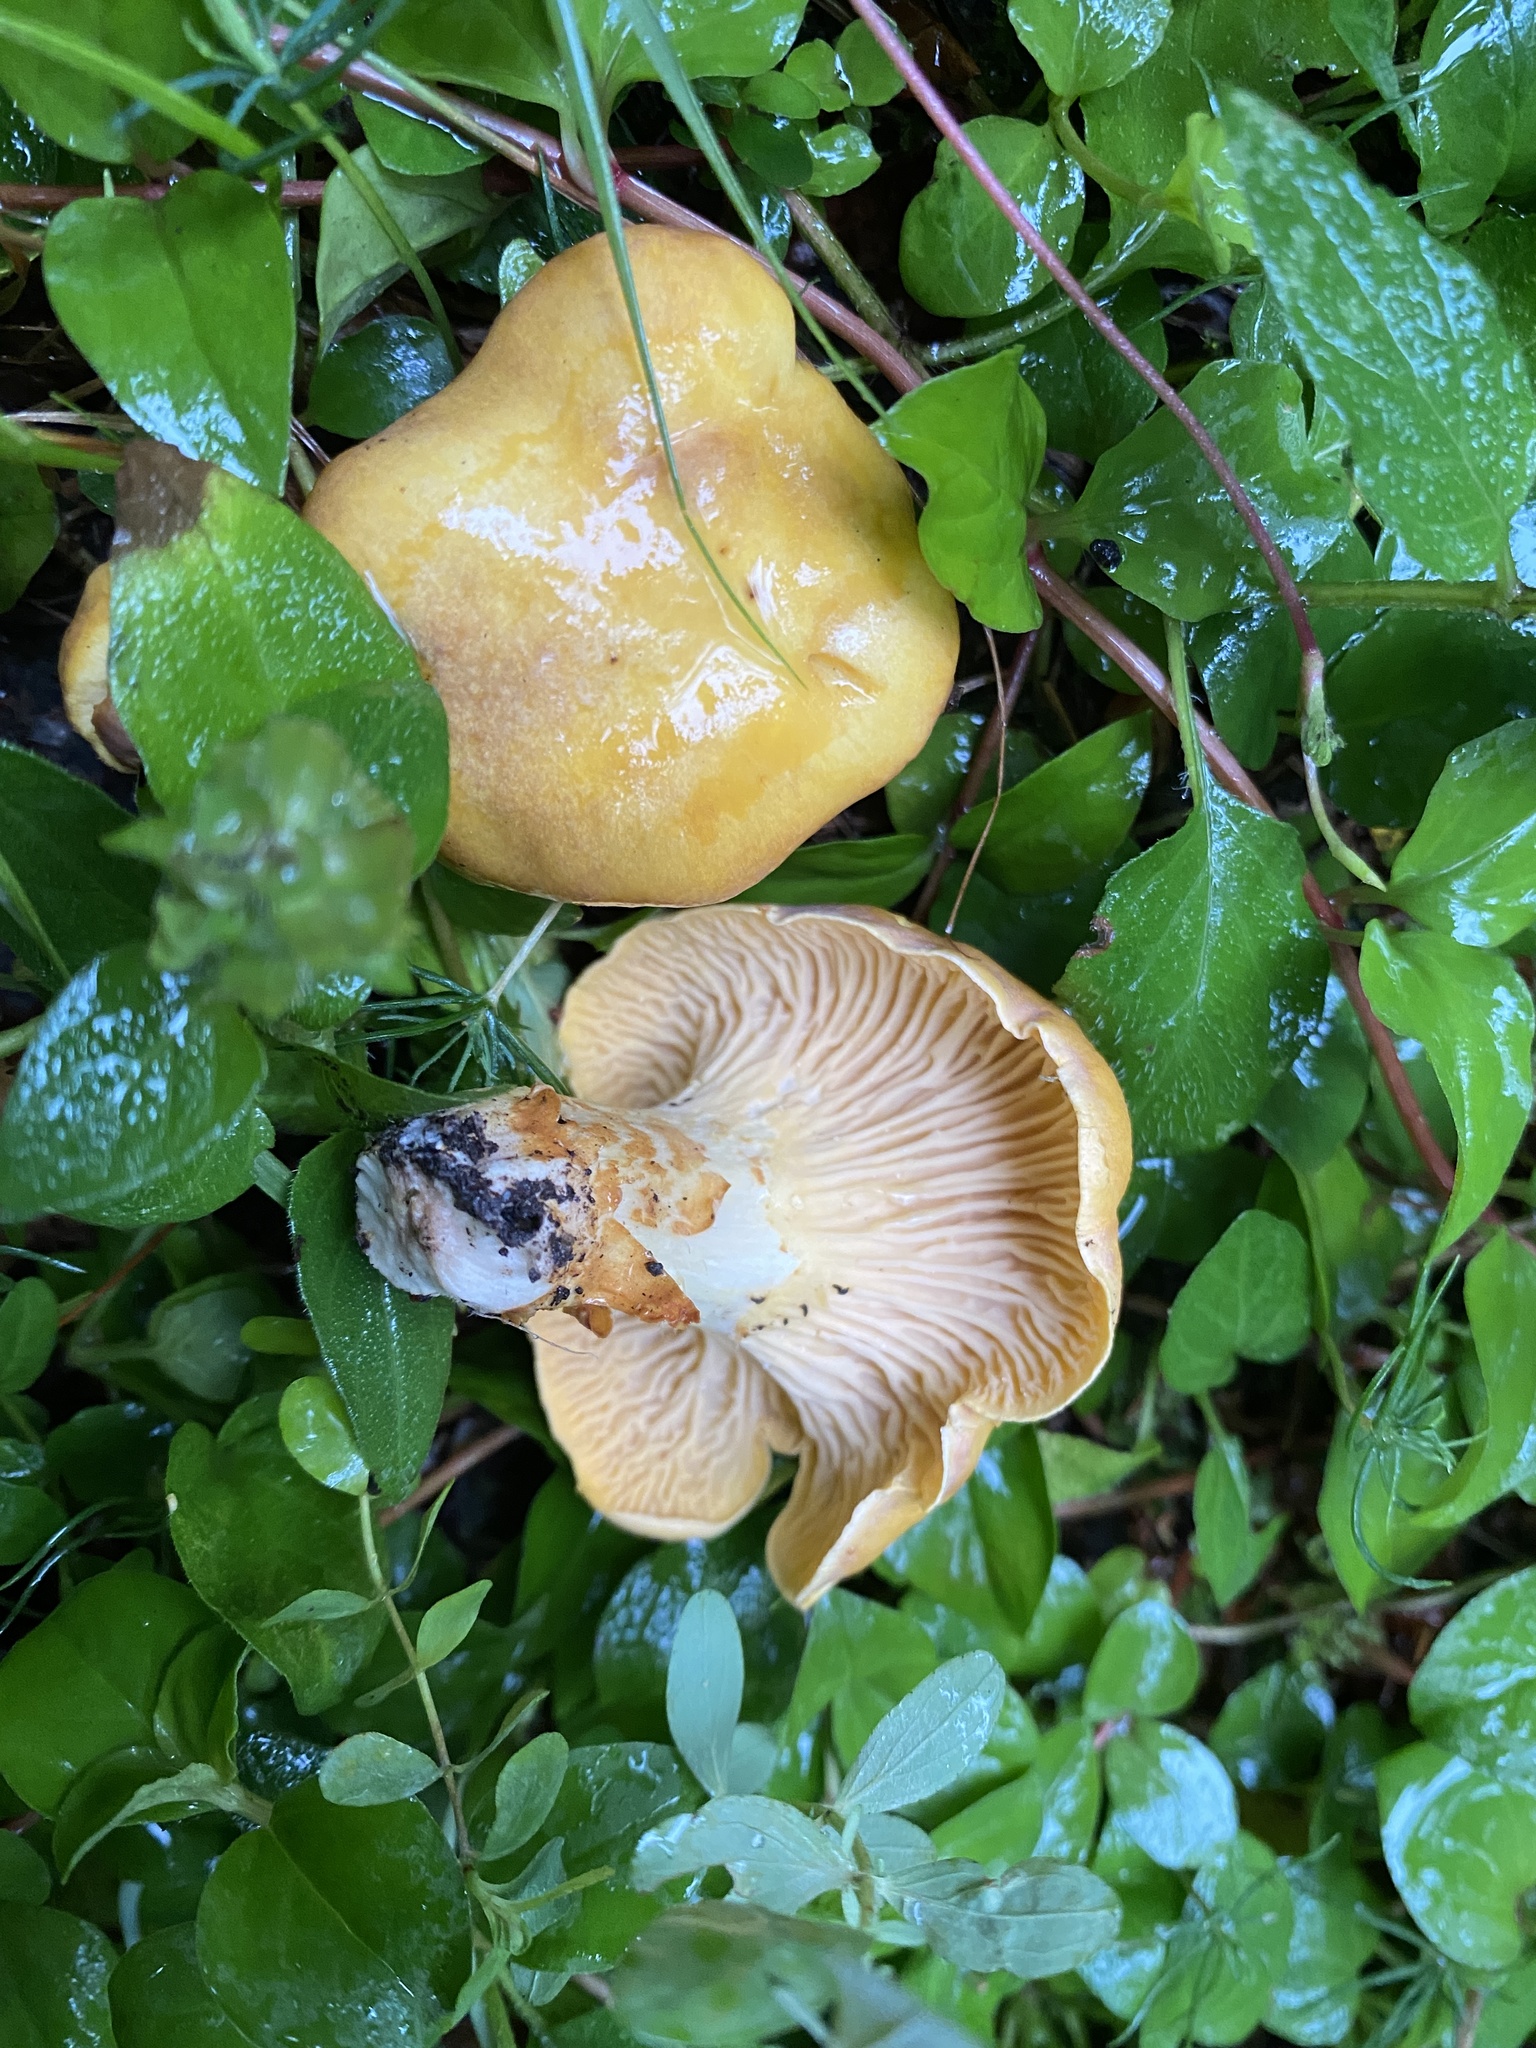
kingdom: Fungi
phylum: Basidiomycota
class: Agaricomycetes
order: Cantharellales
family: Hydnaceae
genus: Cantharellus
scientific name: Cantharellus cibarius
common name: Chanterelle
